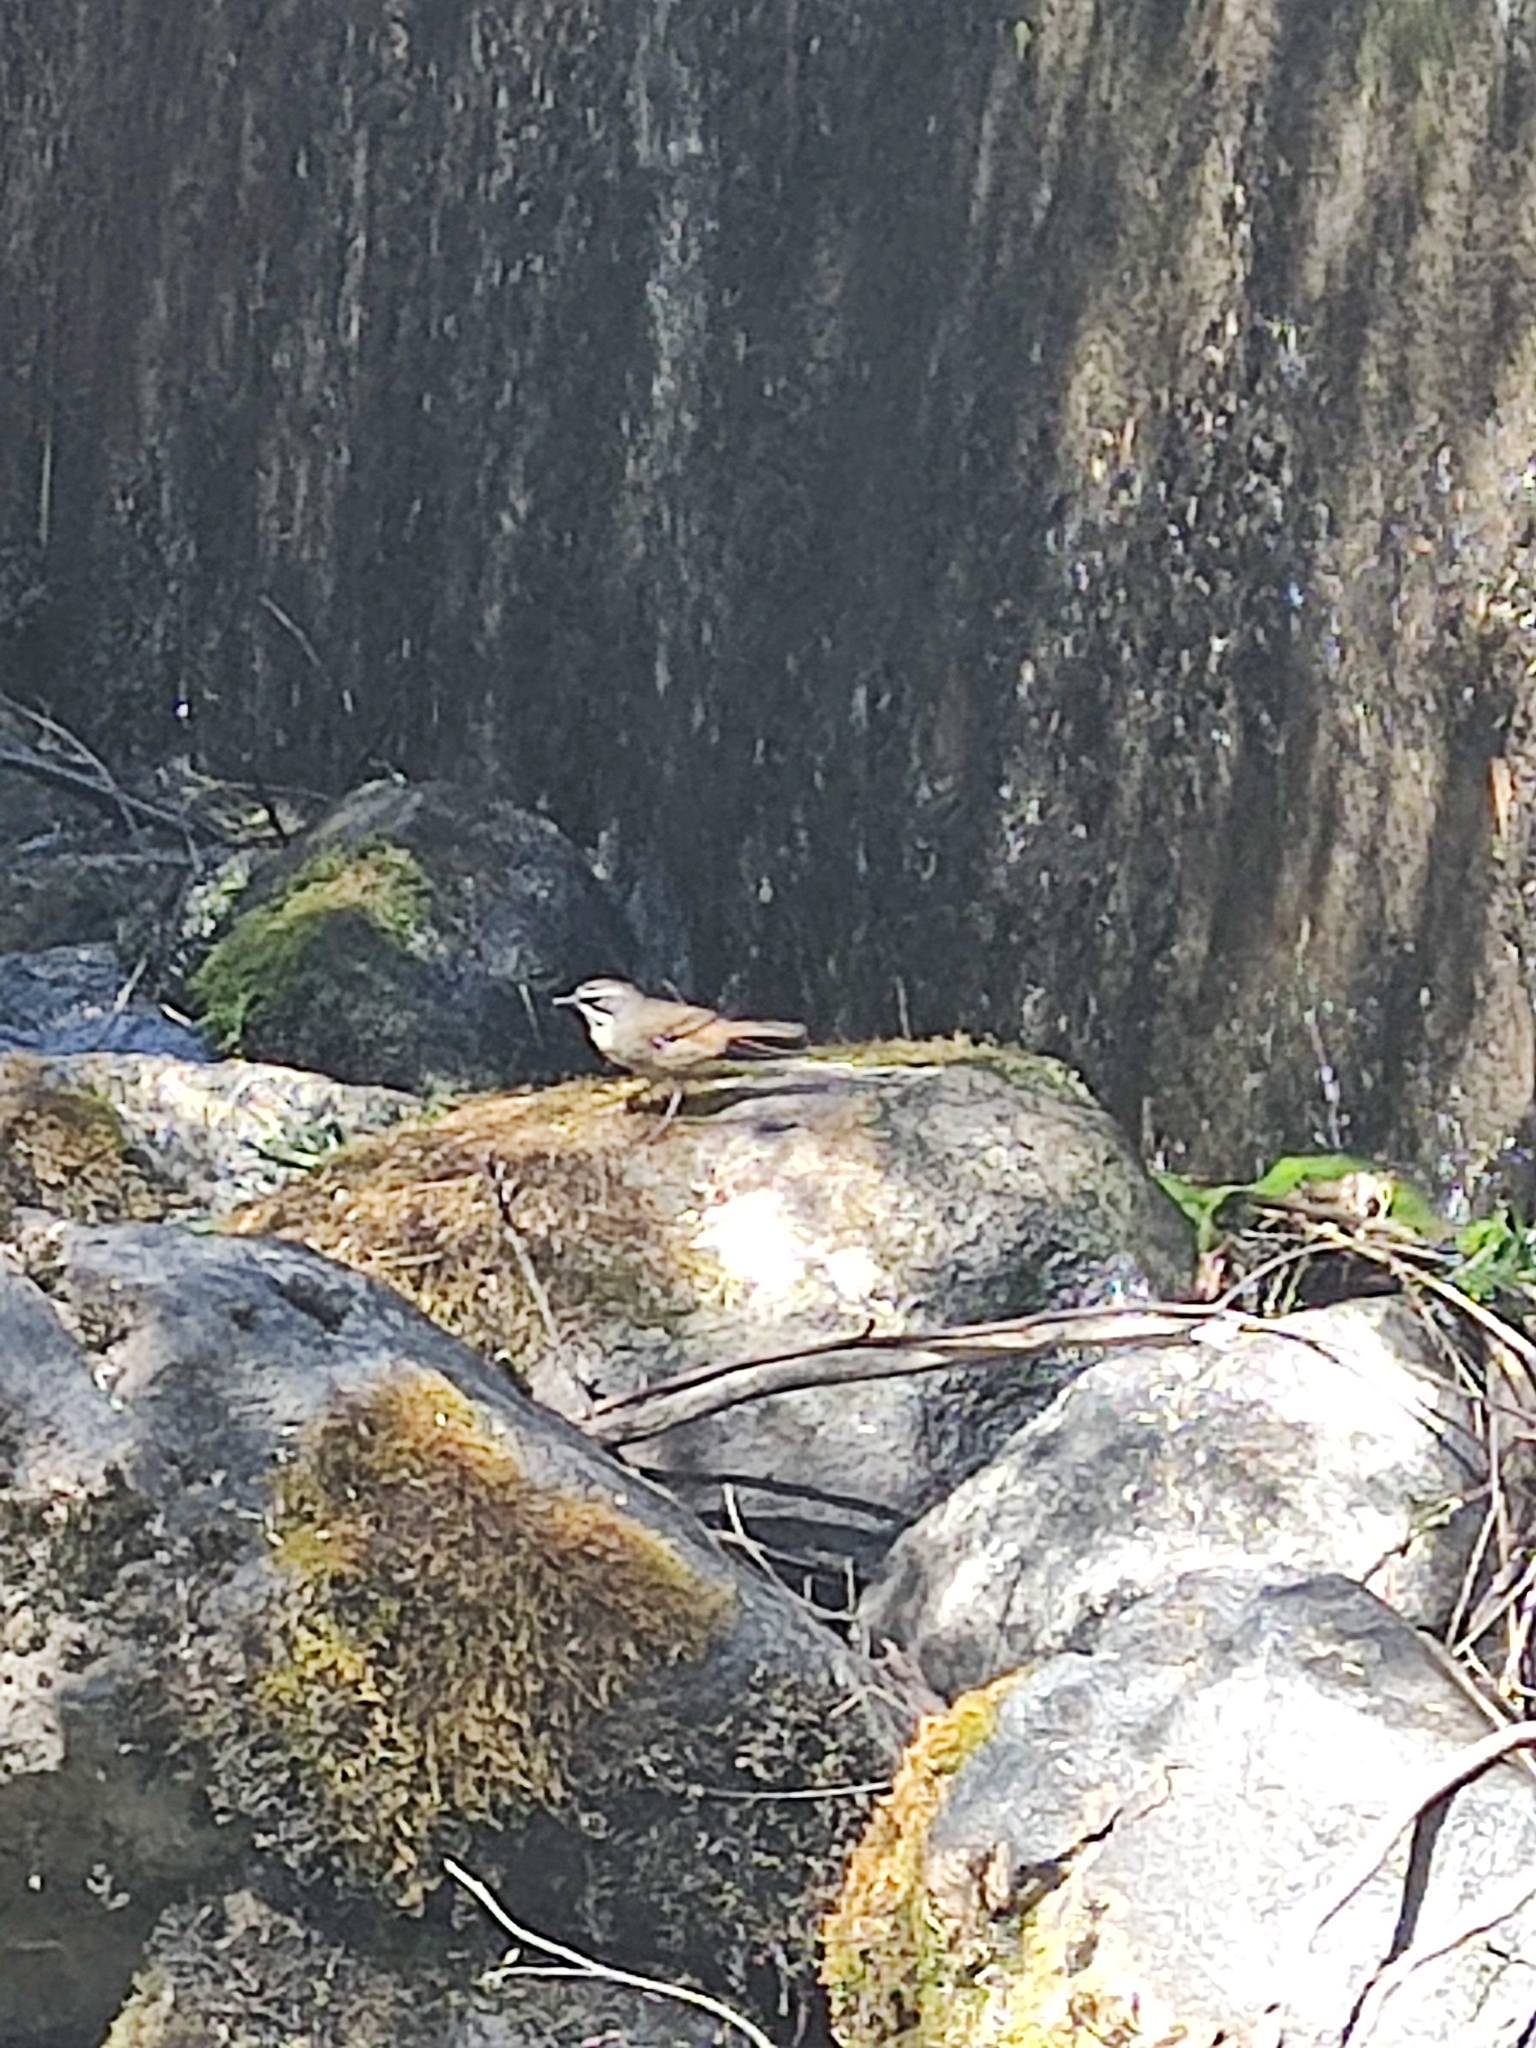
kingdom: Animalia
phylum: Chordata
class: Aves
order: Passeriformes
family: Acanthizidae
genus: Sericornis
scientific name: Sericornis frontalis
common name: White-browed scrubwren
